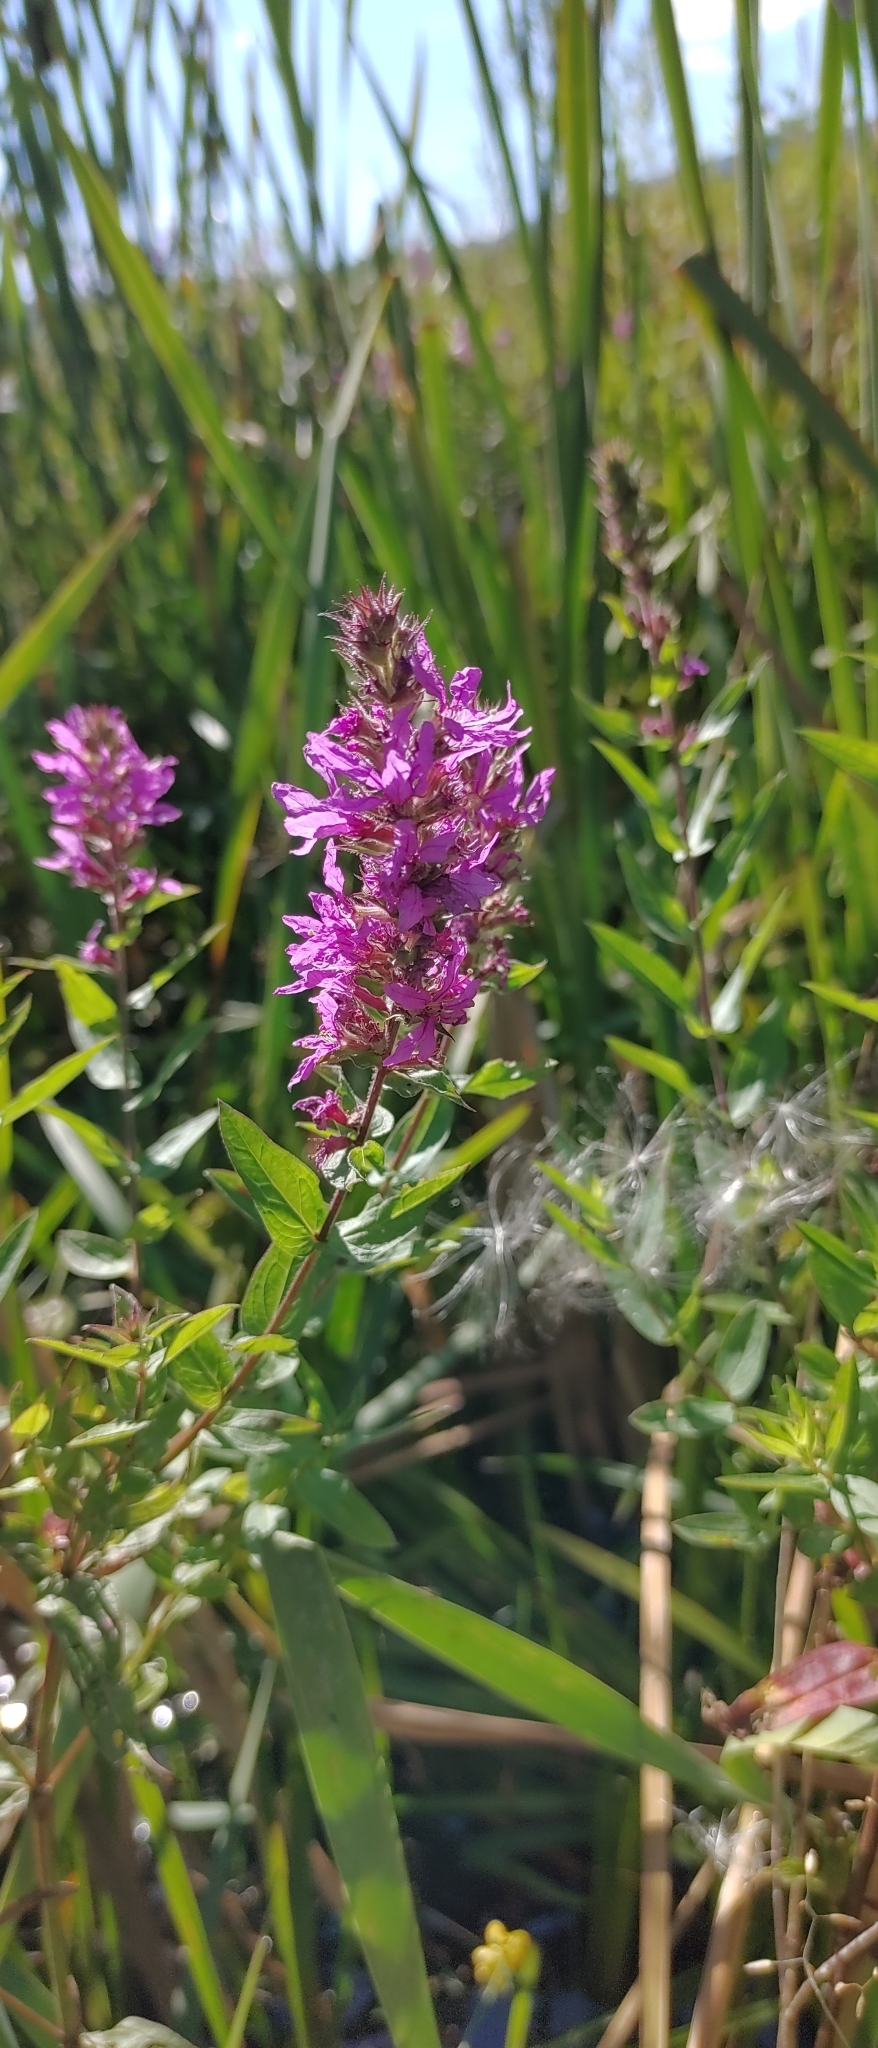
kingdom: Plantae
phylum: Tracheophyta
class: Magnoliopsida
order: Myrtales
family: Lythraceae
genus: Lythrum
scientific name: Lythrum salicaria
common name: Purple loosestrife
